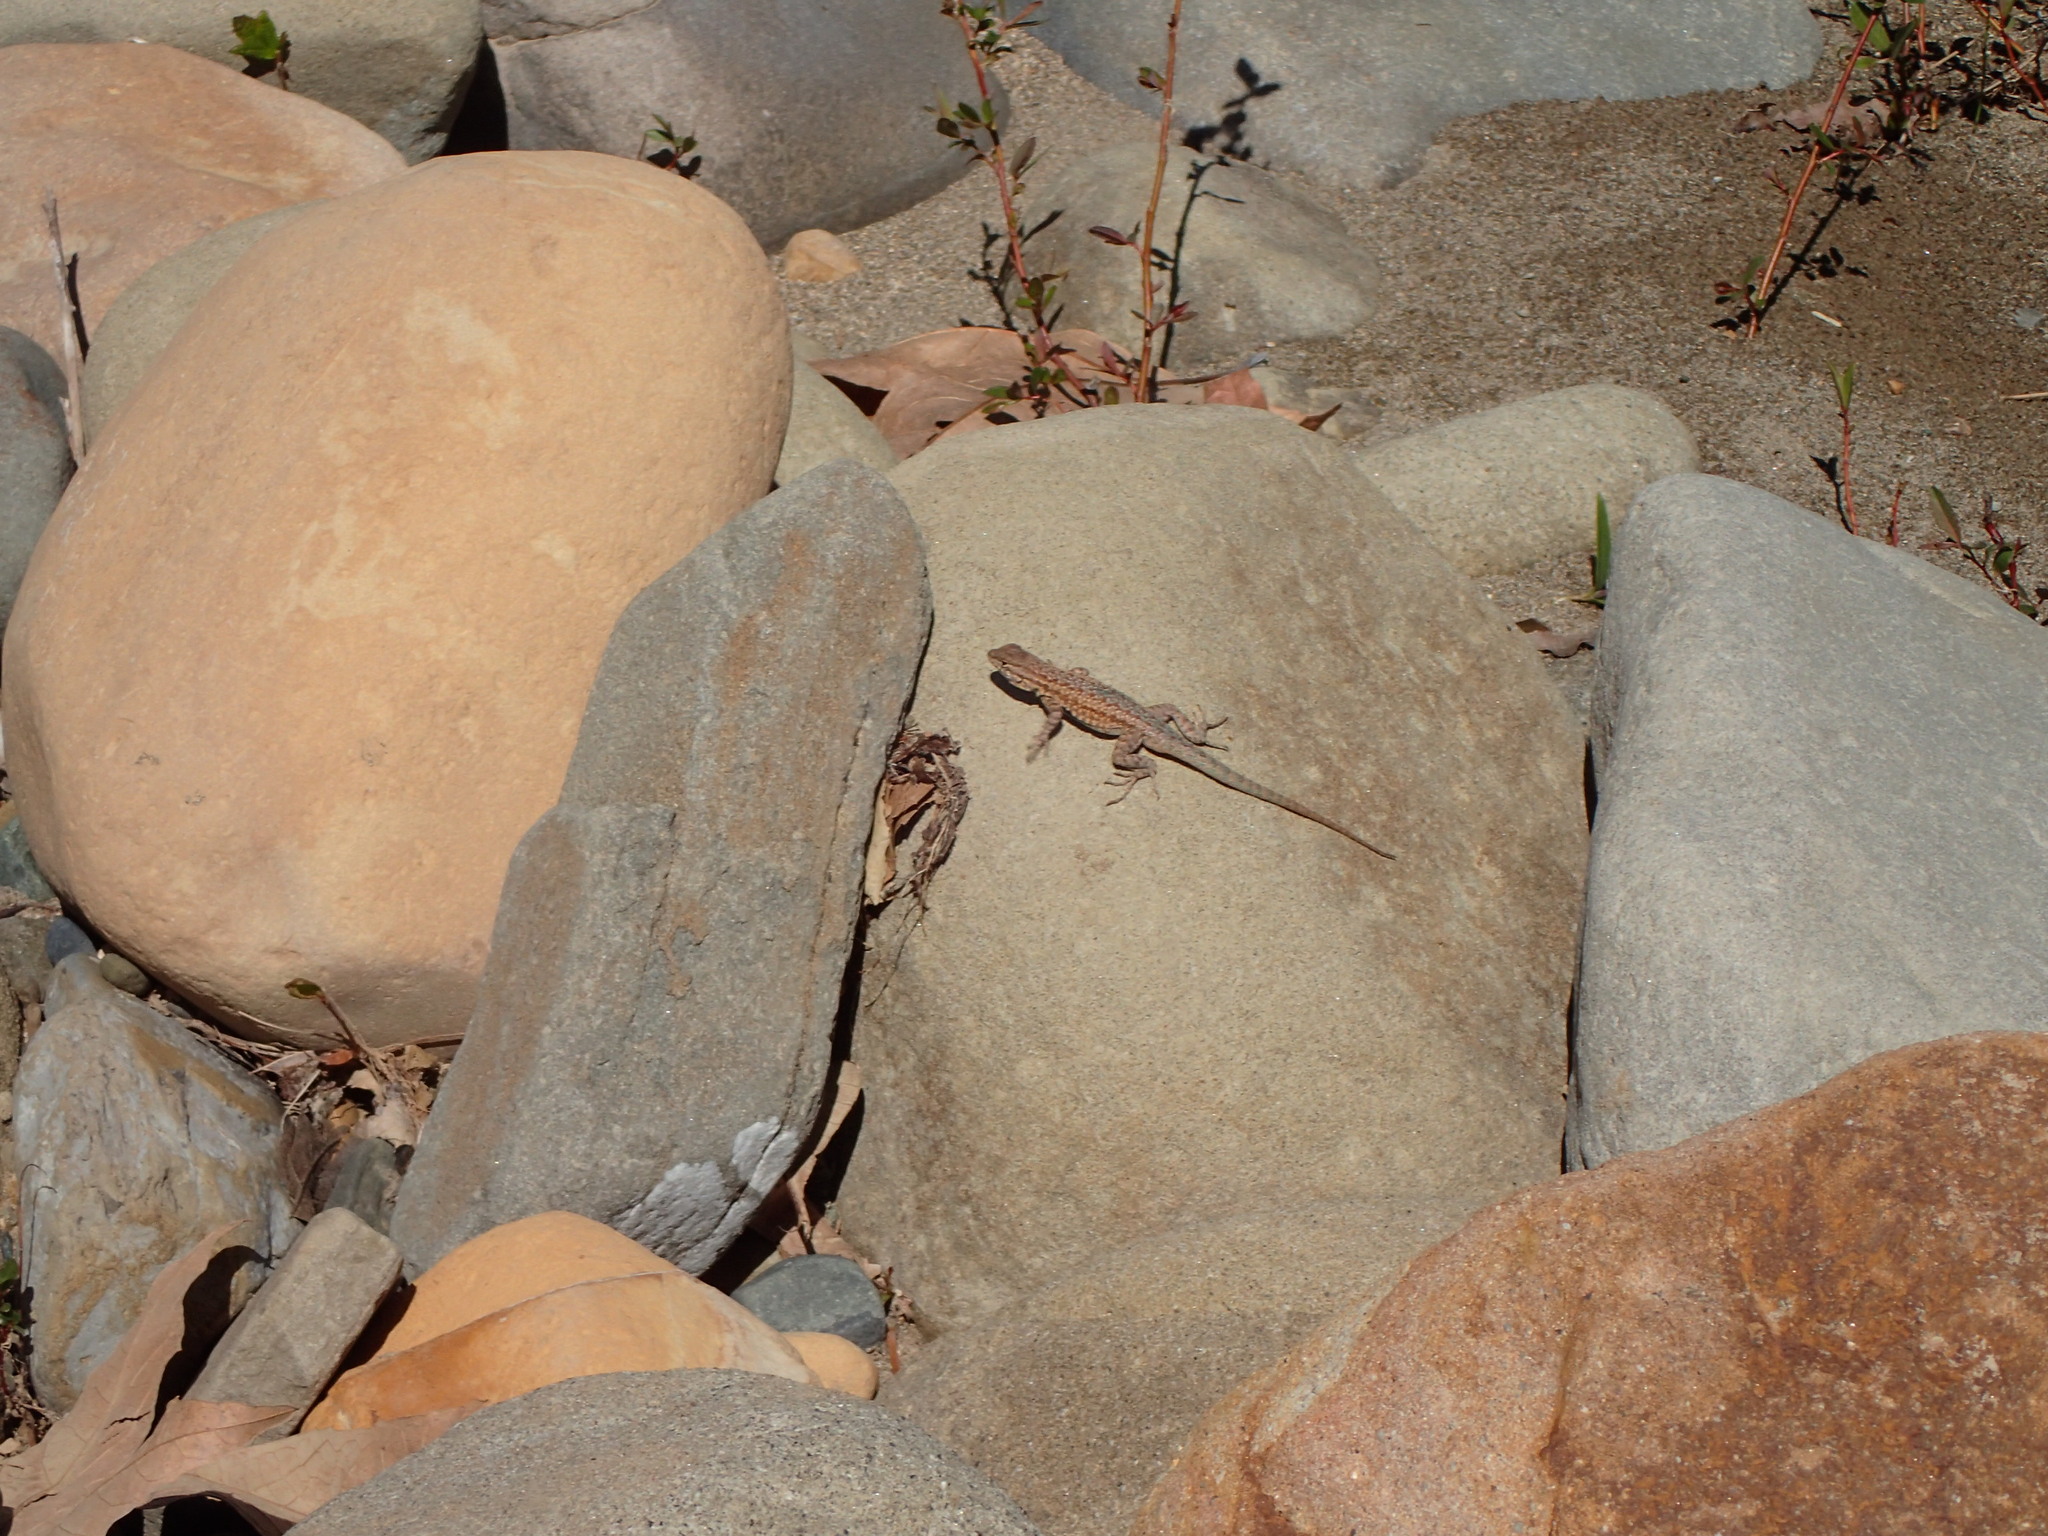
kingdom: Animalia
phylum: Chordata
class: Squamata
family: Phrynosomatidae
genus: Uta
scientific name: Uta stansburiana
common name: Side-blotched lizard
